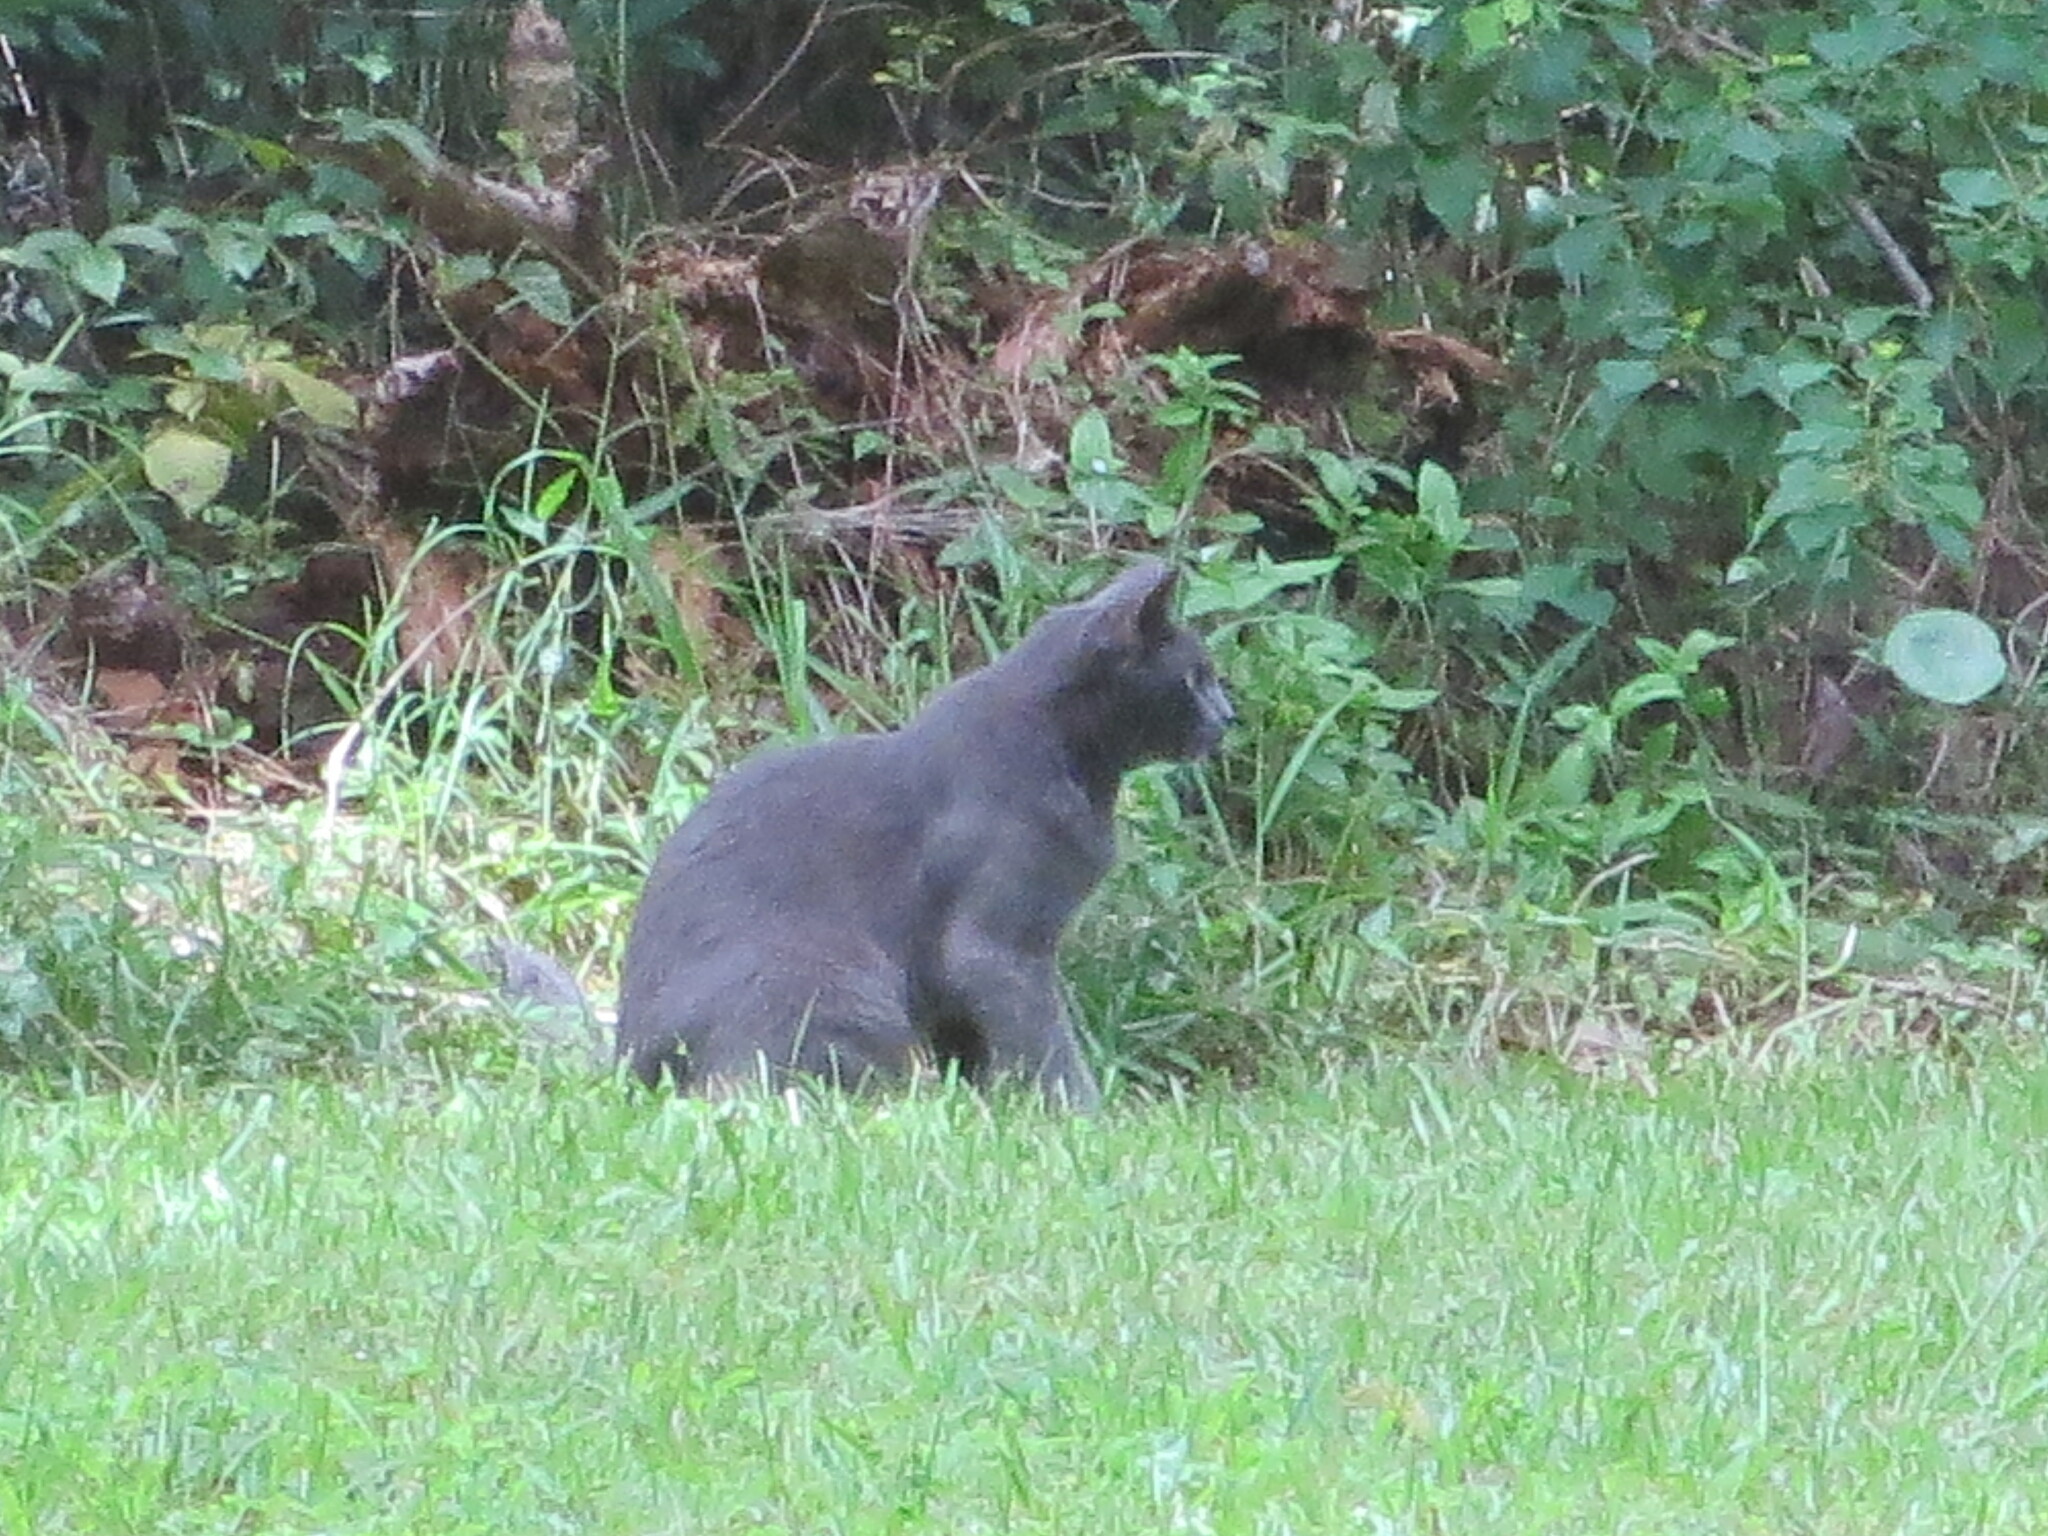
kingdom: Animalia
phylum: Chordata
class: Mammalia
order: Carnivora
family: Felidae
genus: Felis
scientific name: Felis catus
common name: Domestic cat
